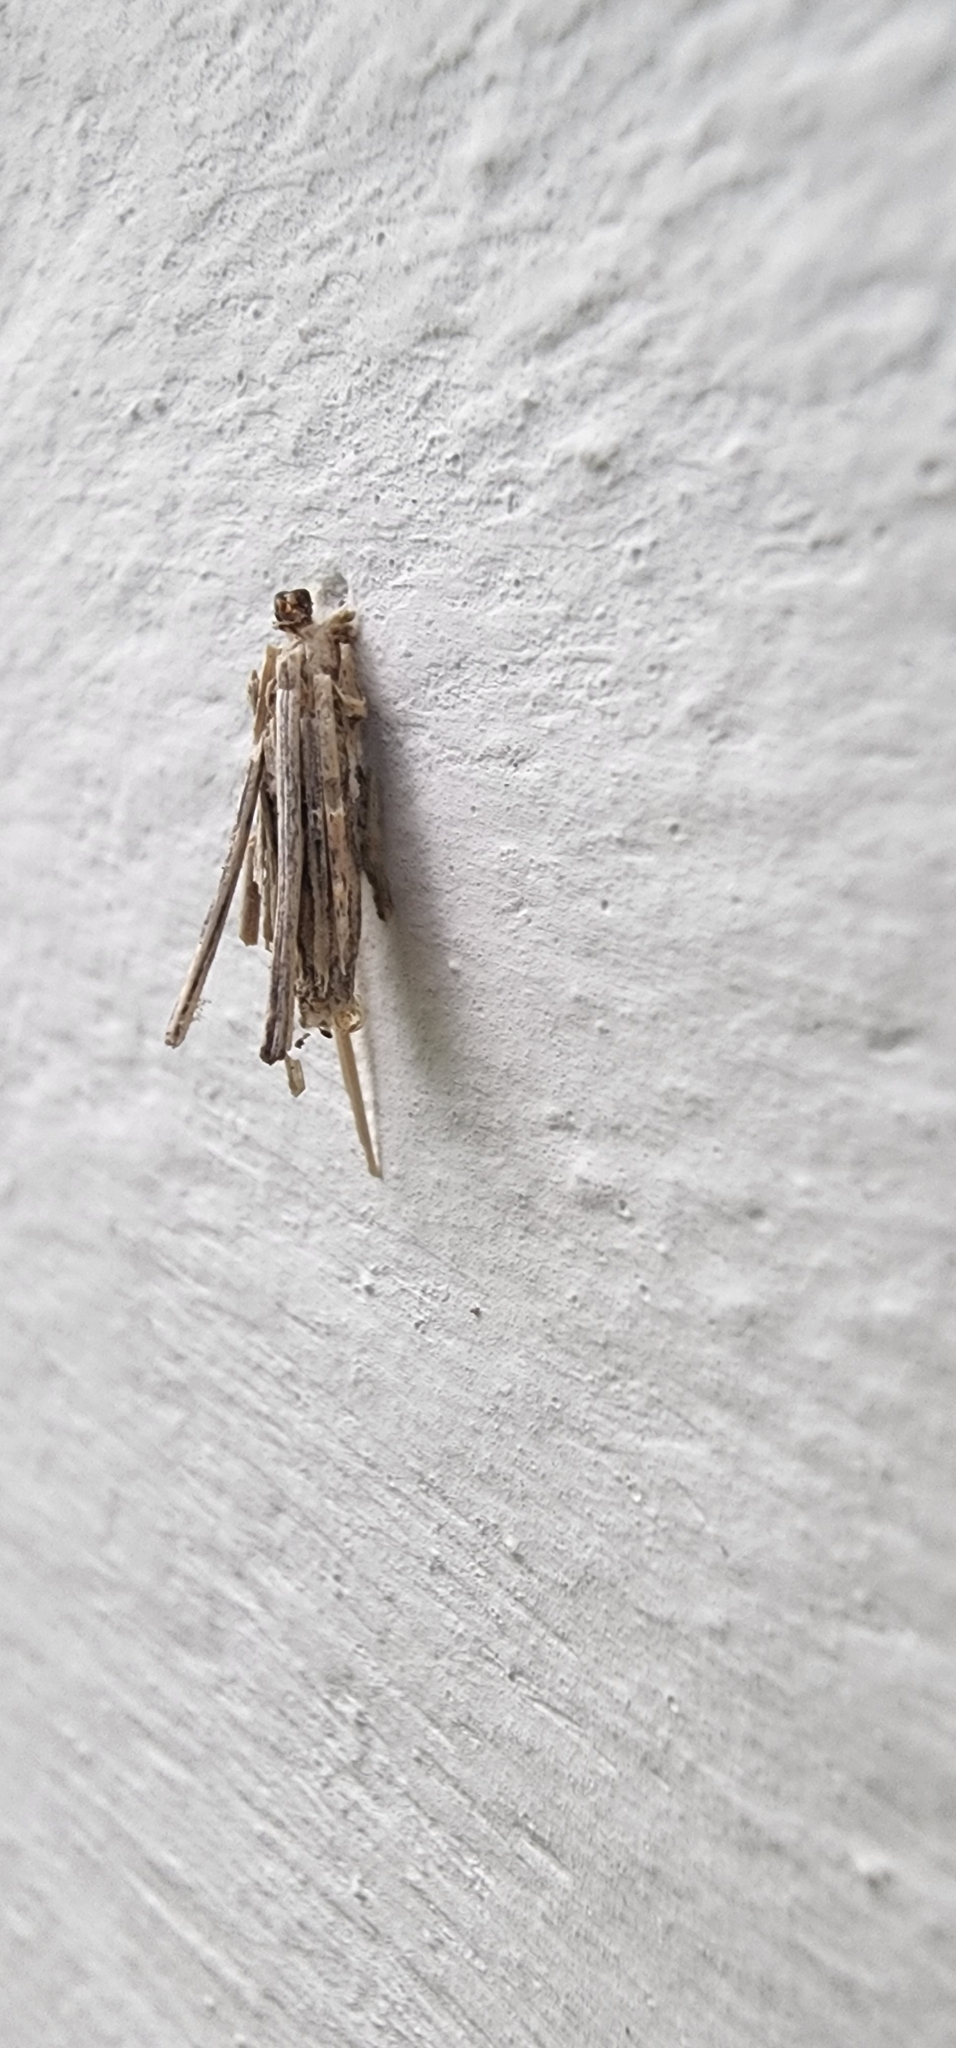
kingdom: Animalia
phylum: Arthropoda
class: Insecta
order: Lepidoptera
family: Psychidae
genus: Psyche
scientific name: Psyche casta
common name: Common sweep
